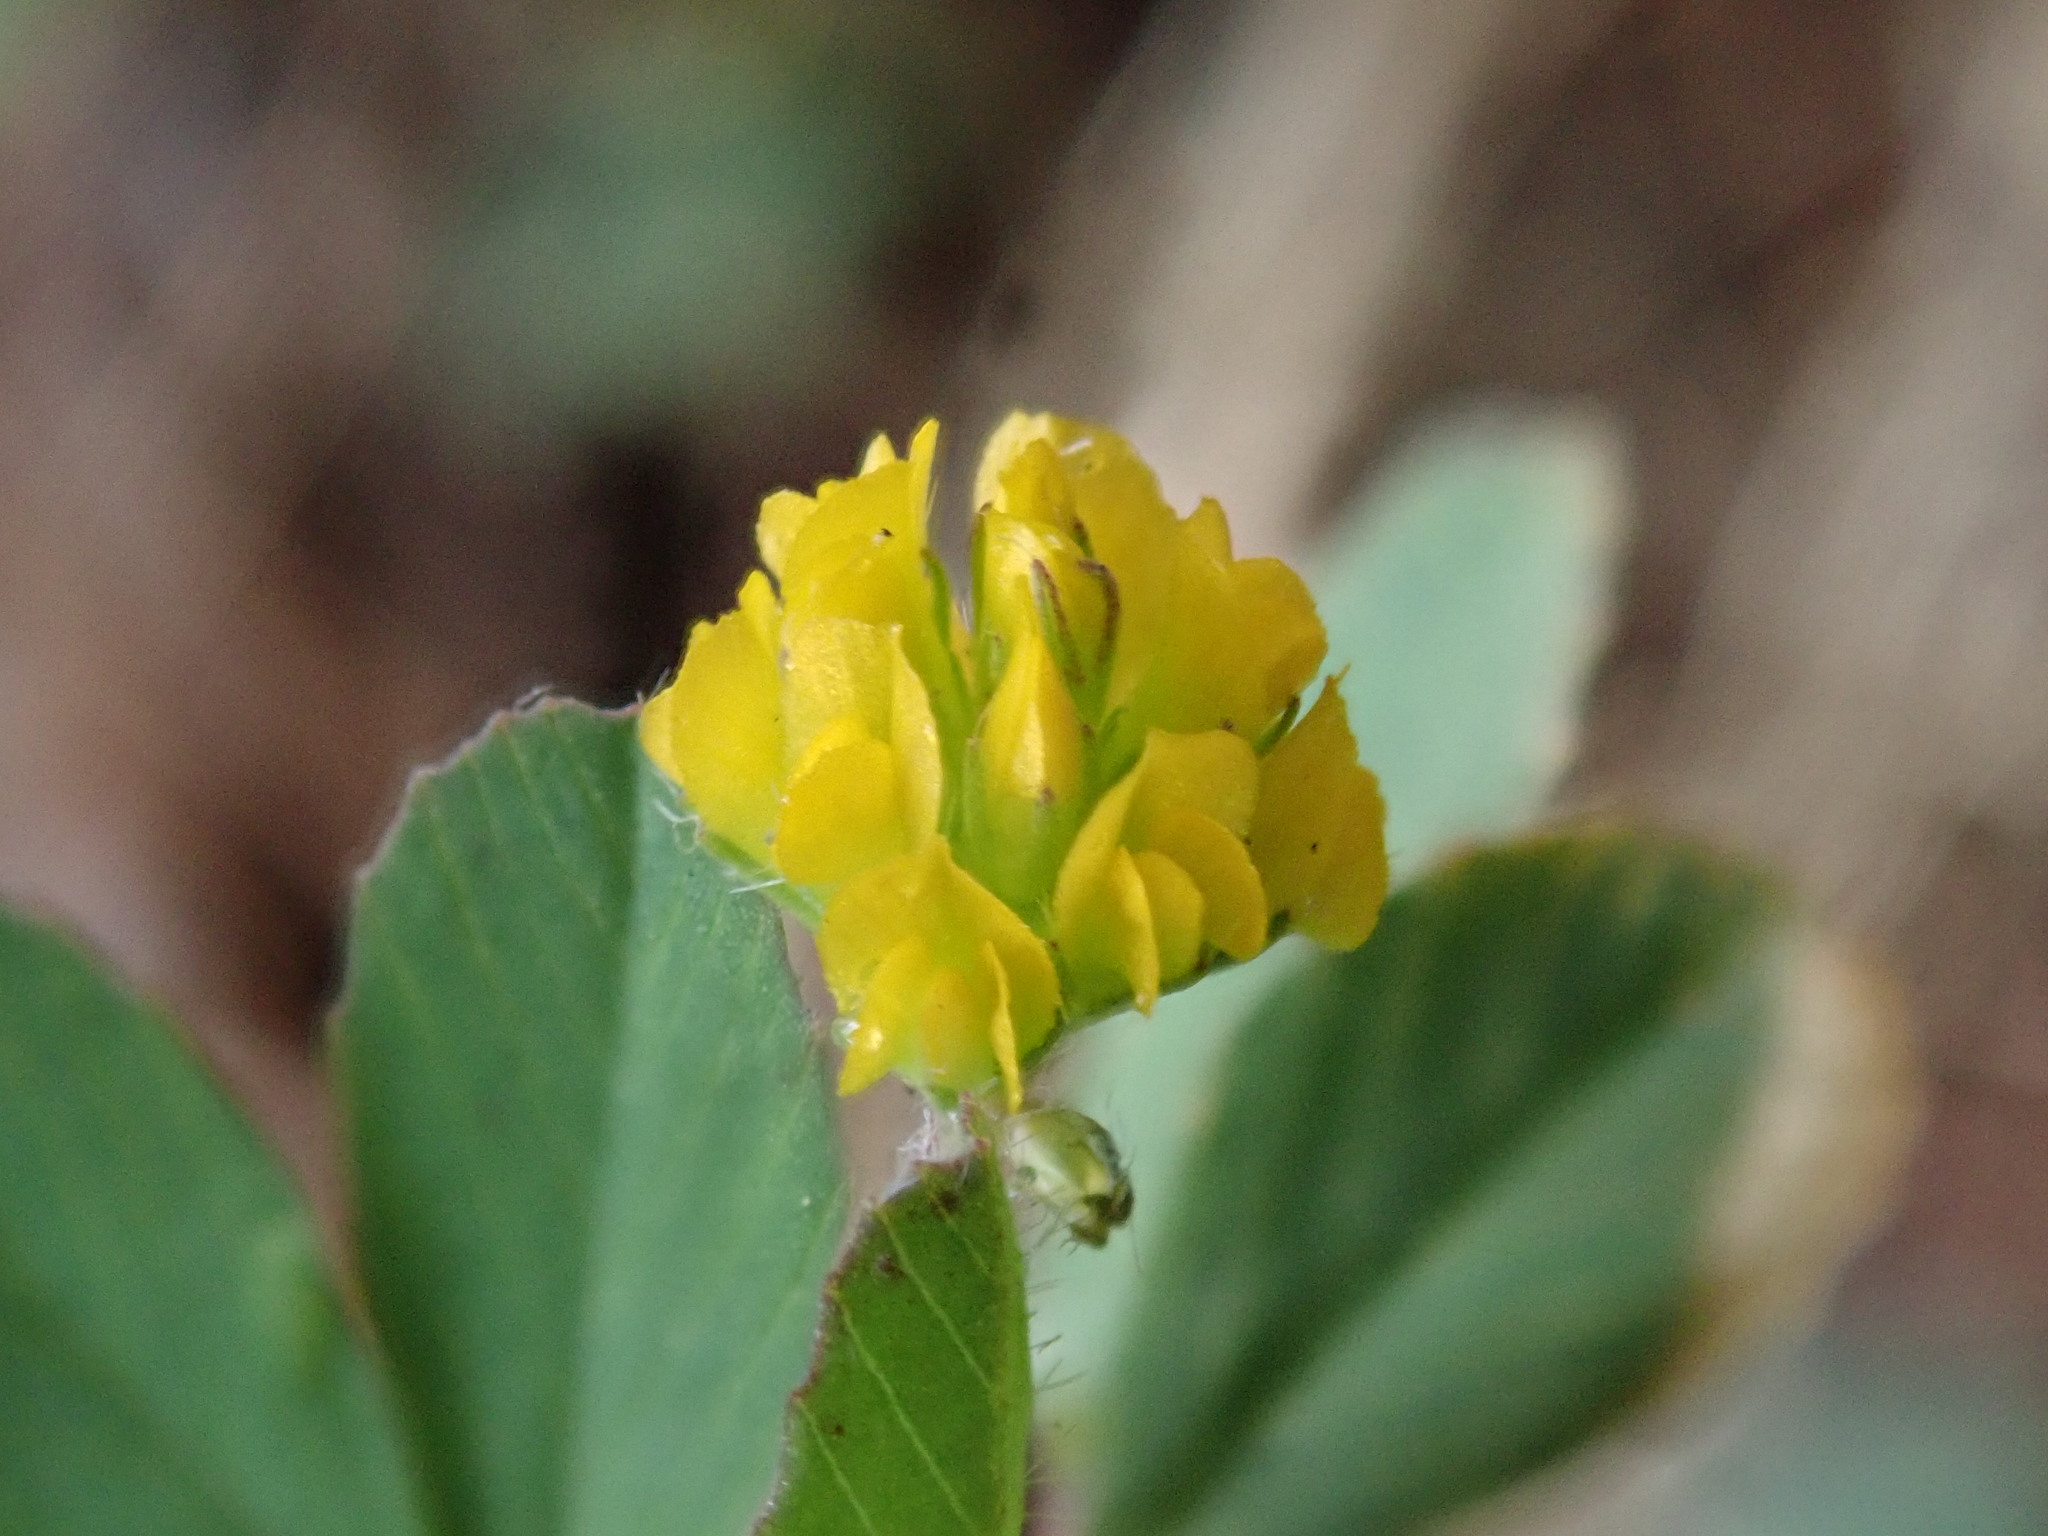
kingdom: Plantae
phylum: Tracheophyta
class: Magnoliopsida
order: Fabales
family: Fabaceae
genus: Trifolium
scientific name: Trifolium dubium
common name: Suckling clover
